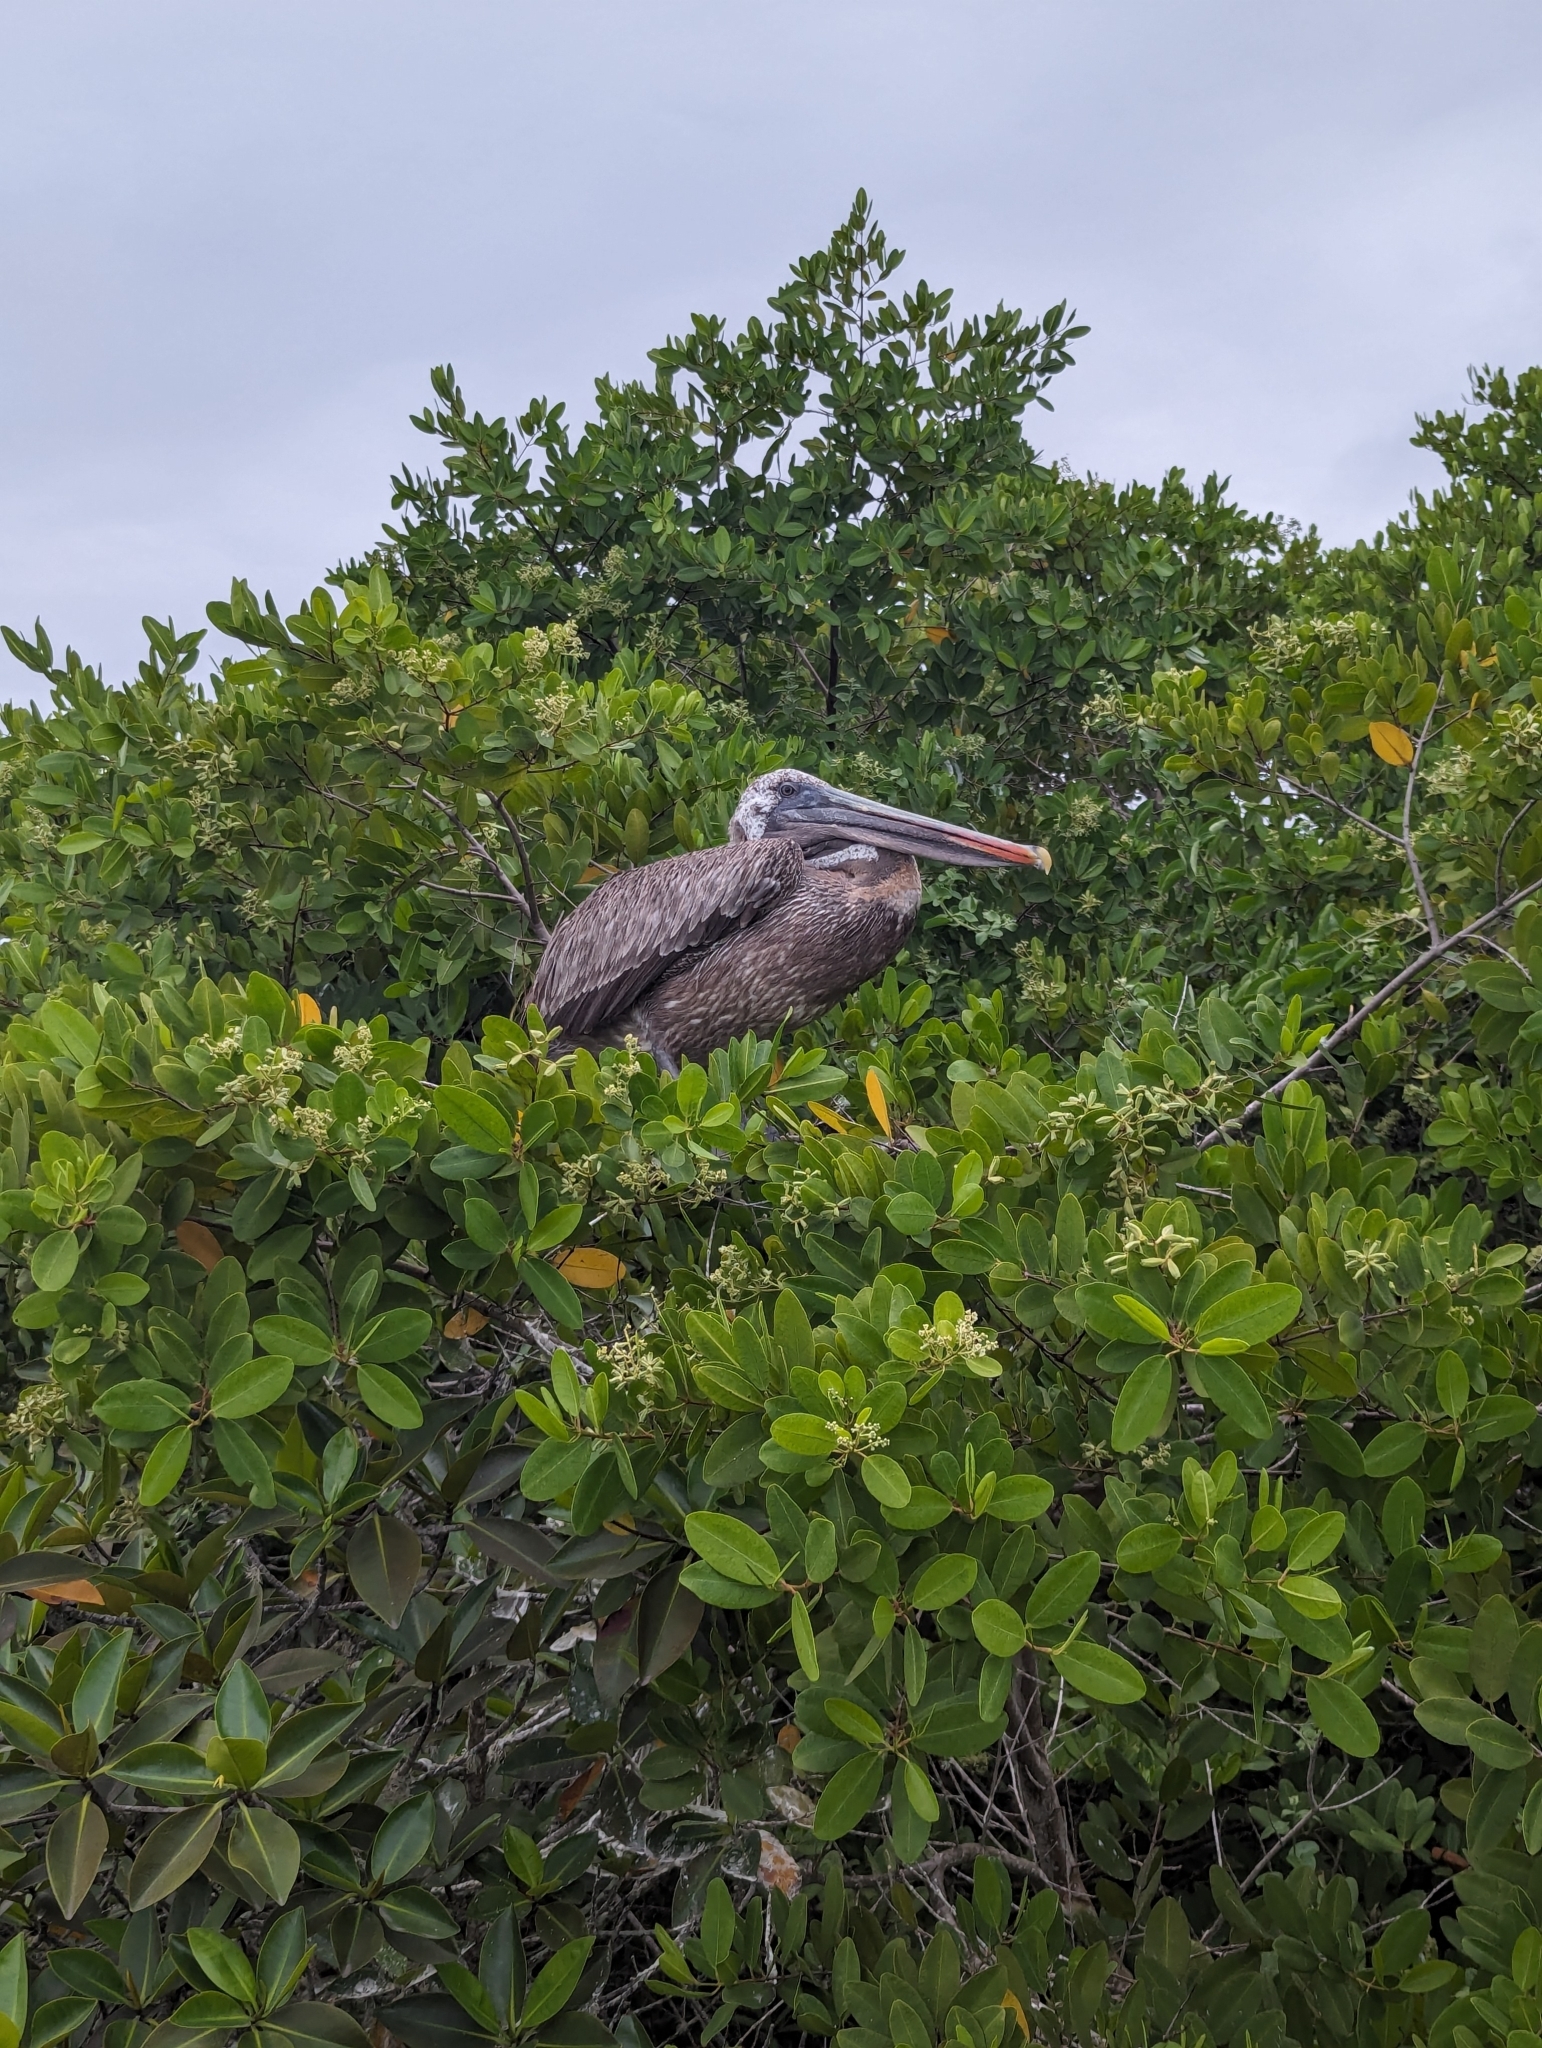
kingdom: Animalia
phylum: Chordata
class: Aves
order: Pelecaniformes
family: Pelecanidae
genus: Pelecanus
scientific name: Pelecanus occidentalis
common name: Brown pelican
